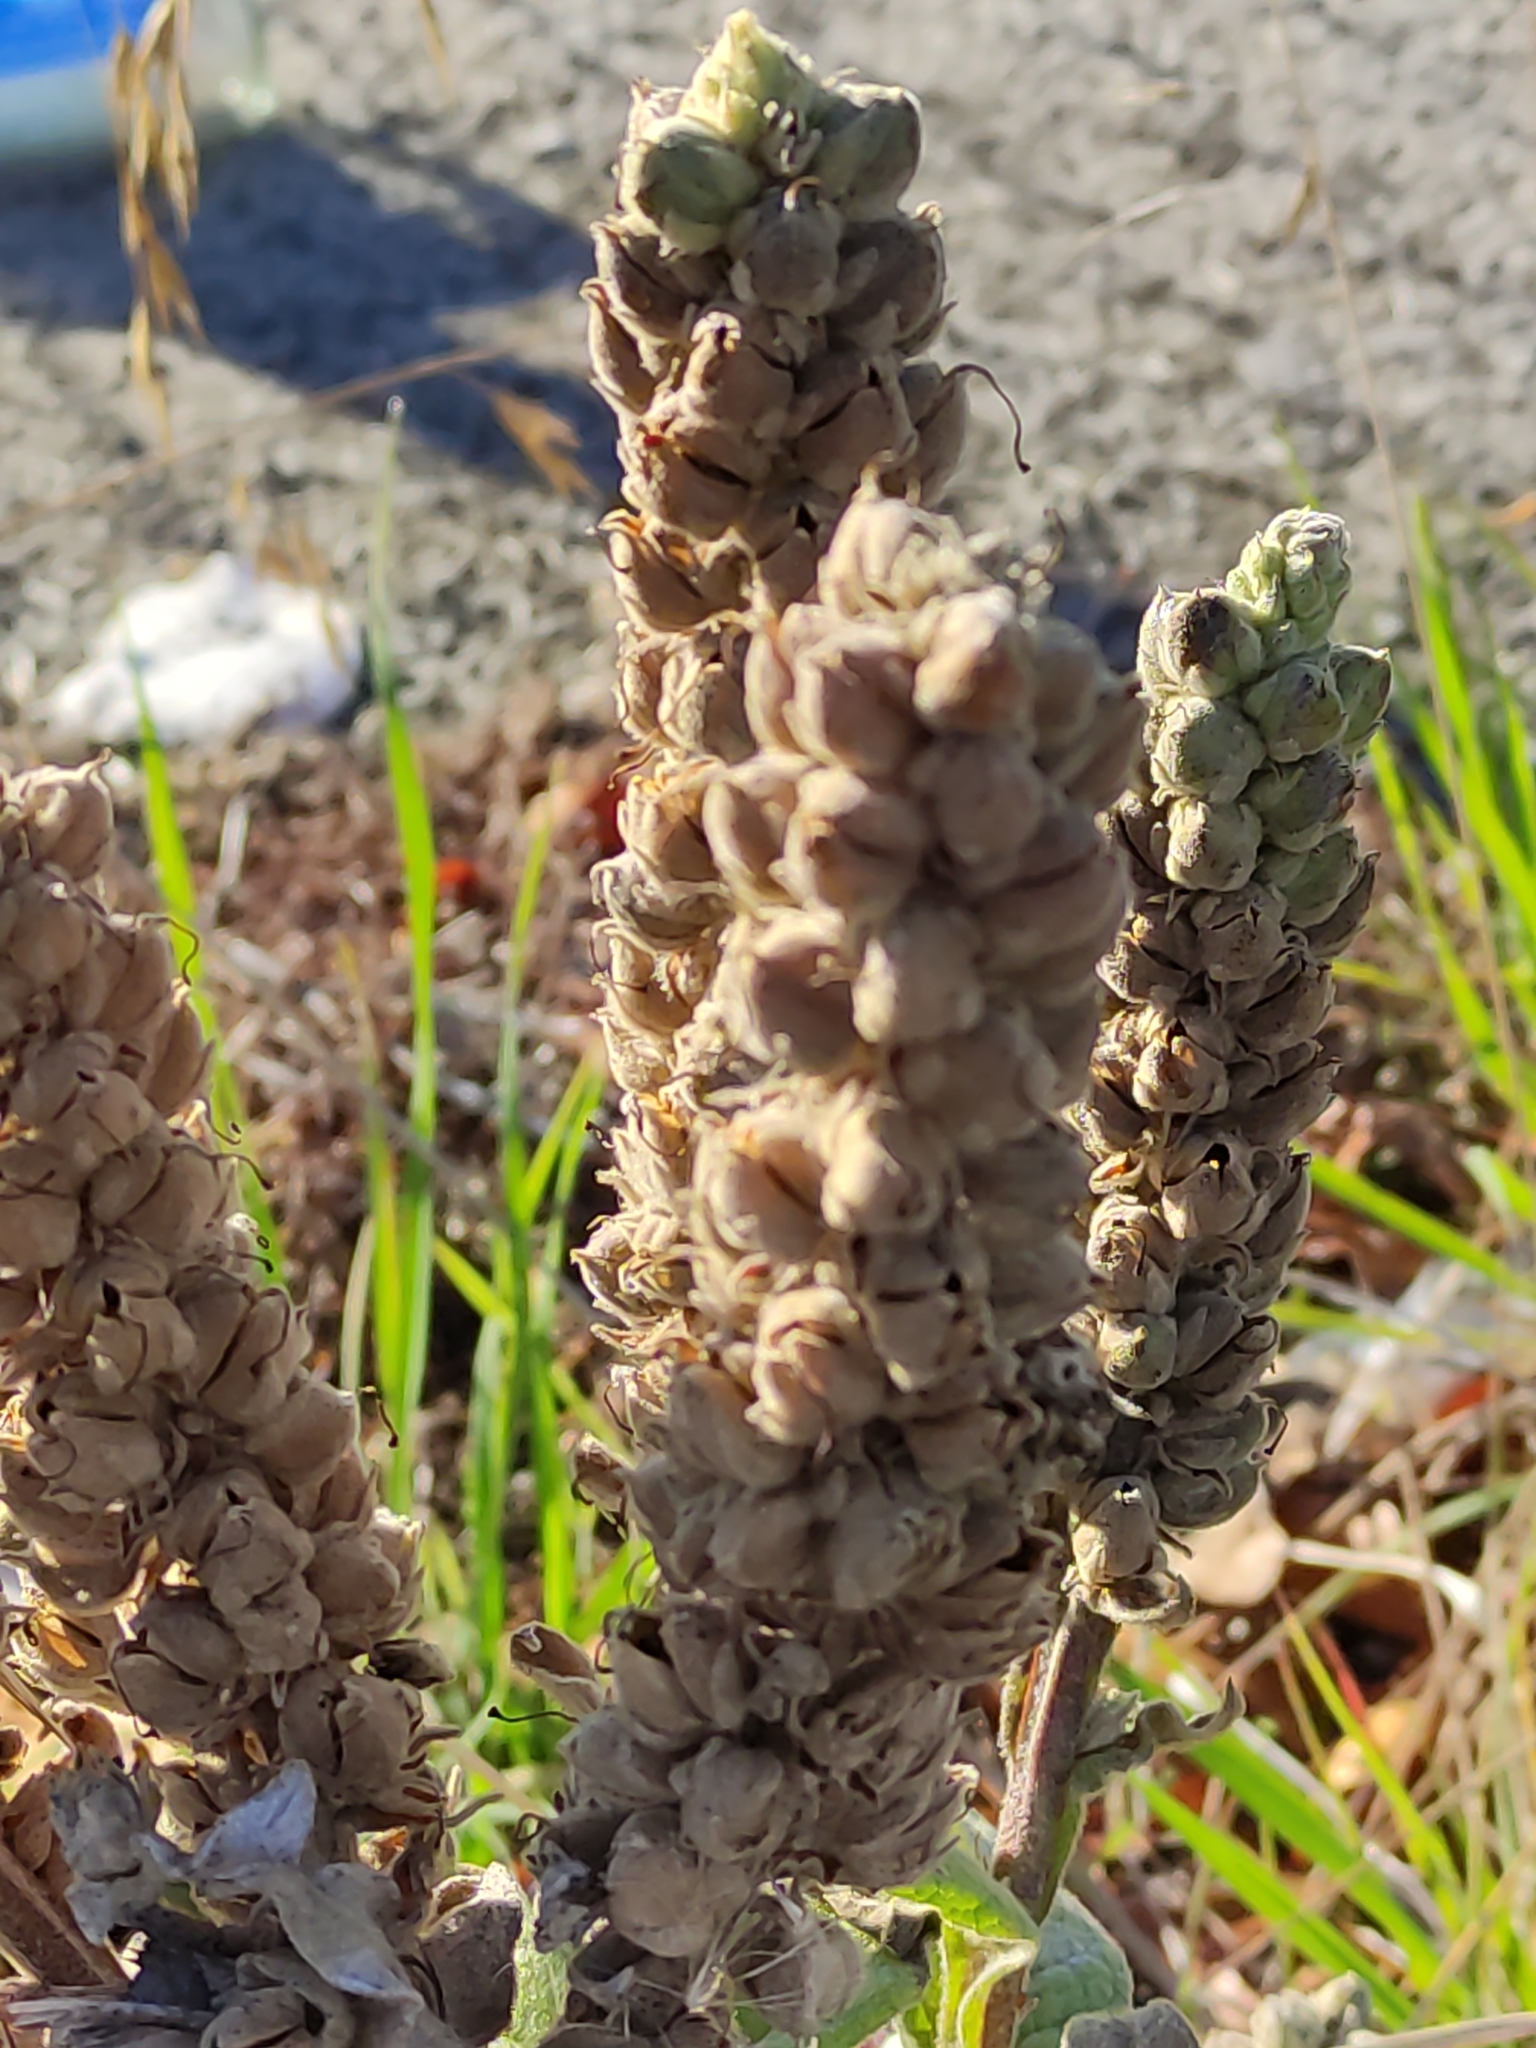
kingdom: Plantae
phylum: Tracheophyta
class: Magnoliopsida
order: Lamiales
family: Scrophulariaceae
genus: Verbascum
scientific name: Verbascum thapsus
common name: Common mullein
